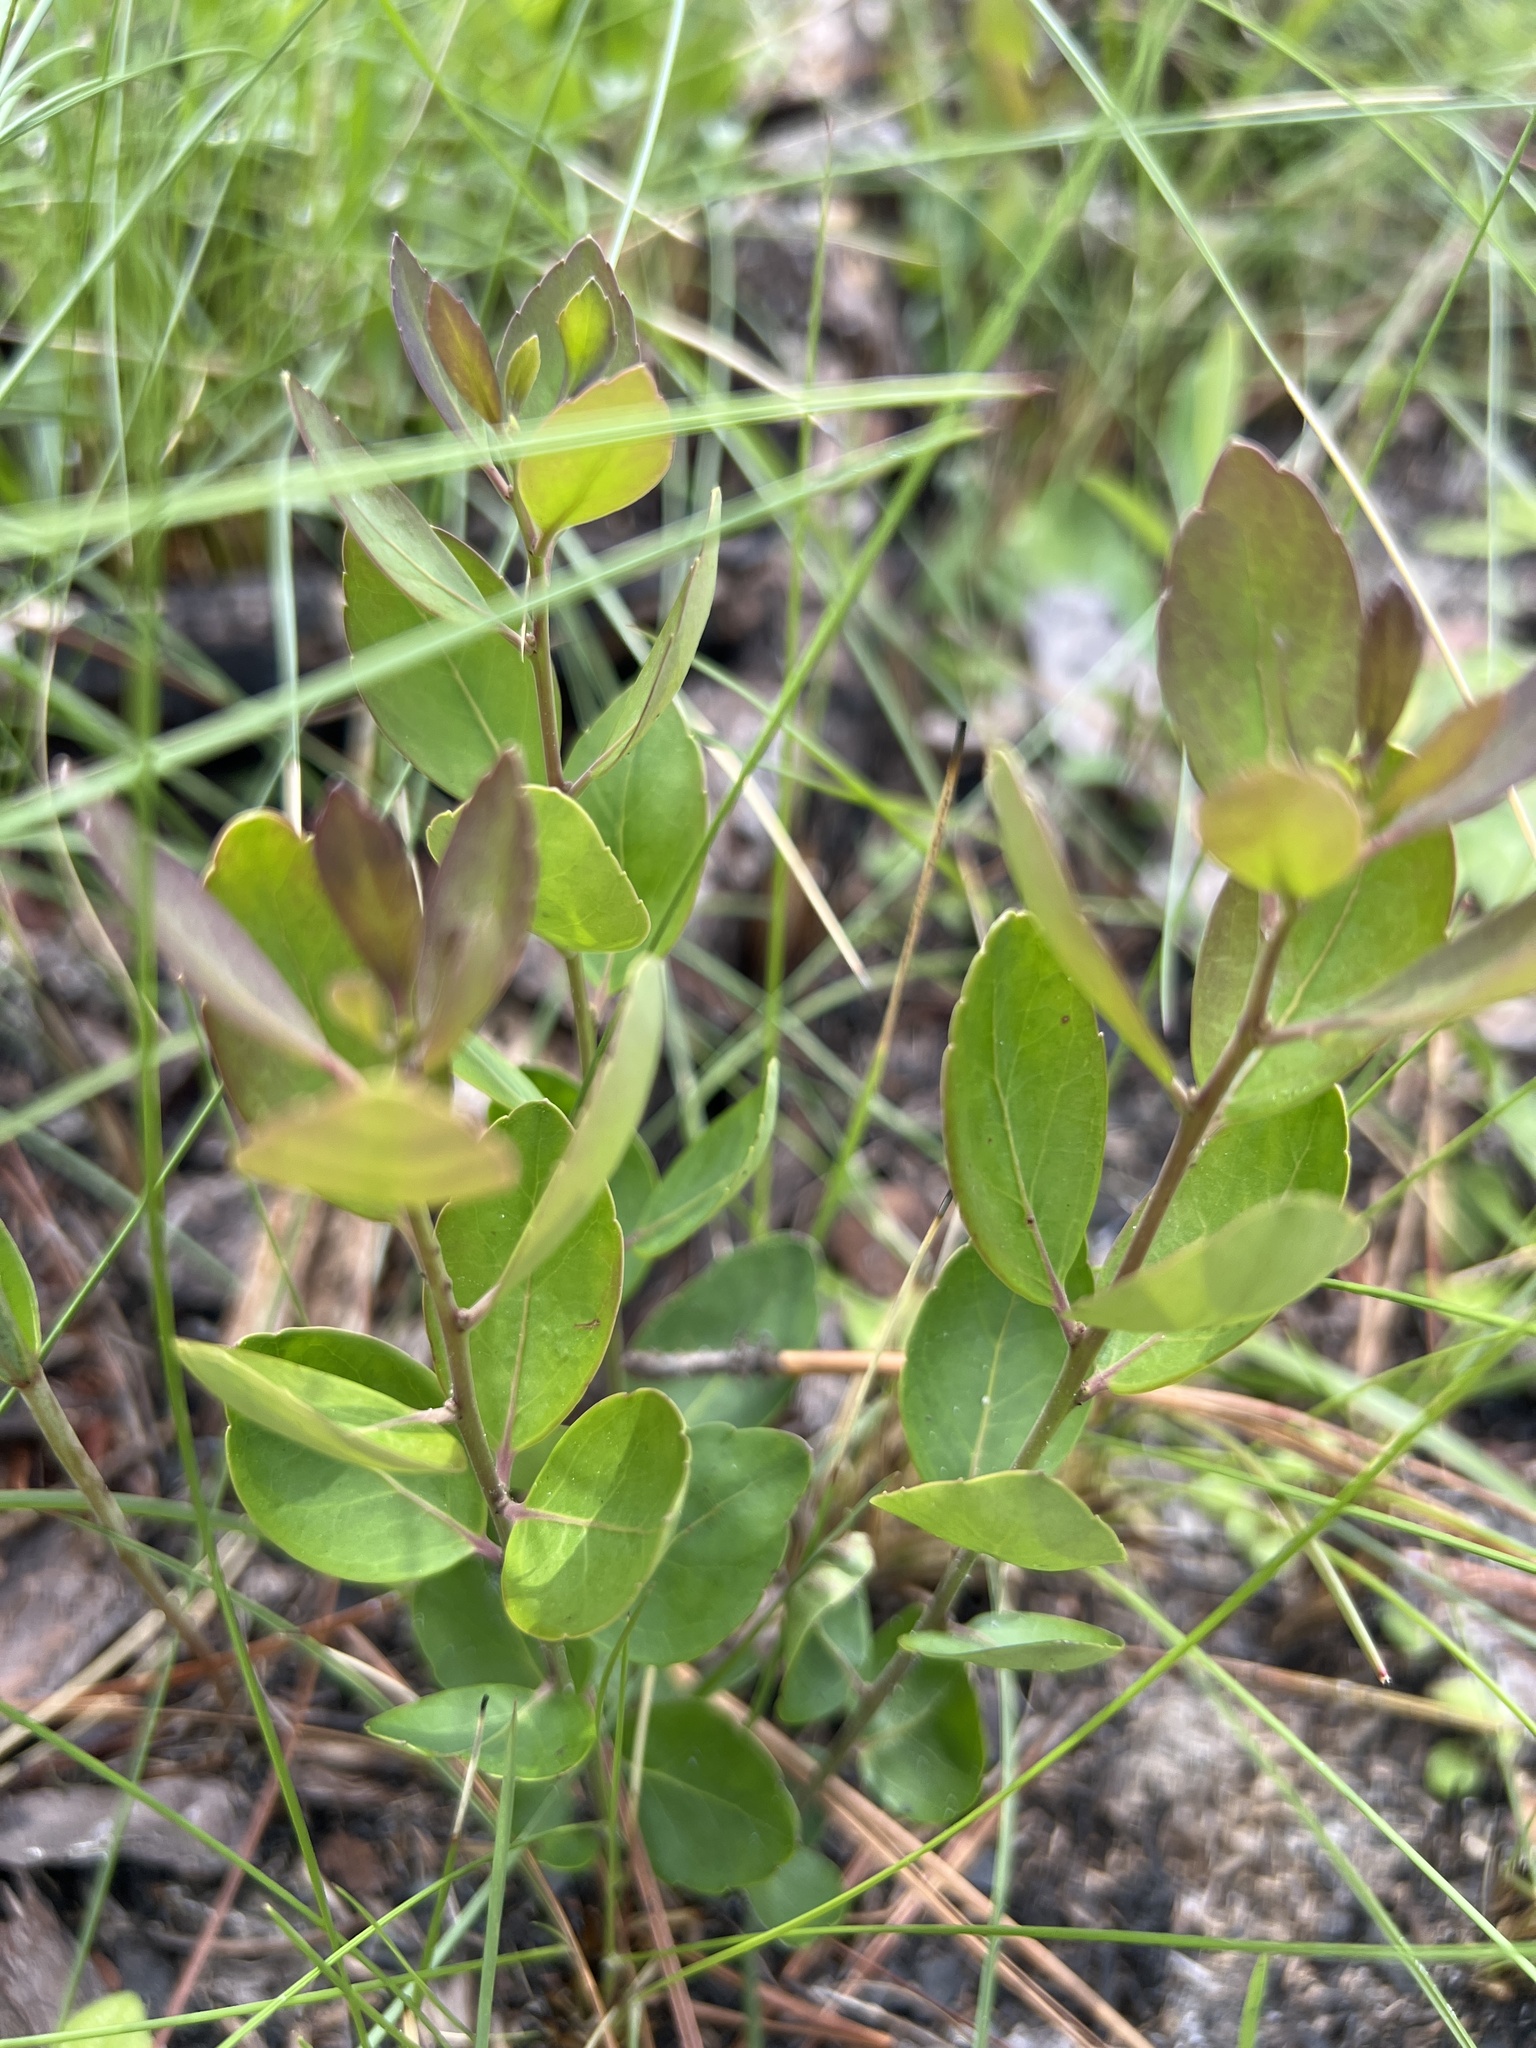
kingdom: Plantae
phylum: Tracheophyta
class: Magnoliopsida
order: Aquifoliales
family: Aquifoliaceae
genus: Ilex
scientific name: Ilex glabra
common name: Bitter gallberry
